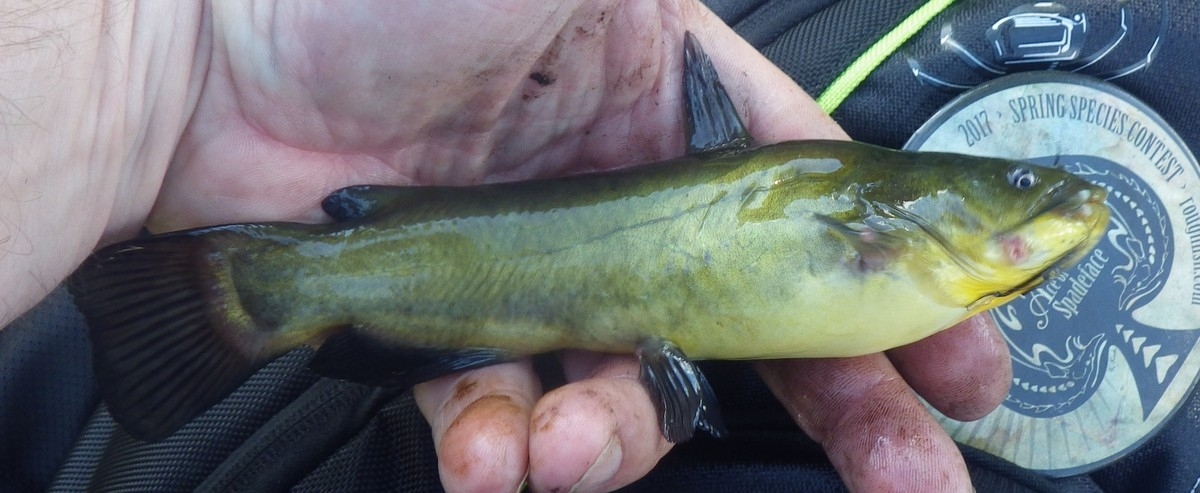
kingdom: Animalia
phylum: Chordata
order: Siluriformes
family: Ictaluridae
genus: Ameiurus
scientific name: Ameiurus melas
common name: Black bullhead
